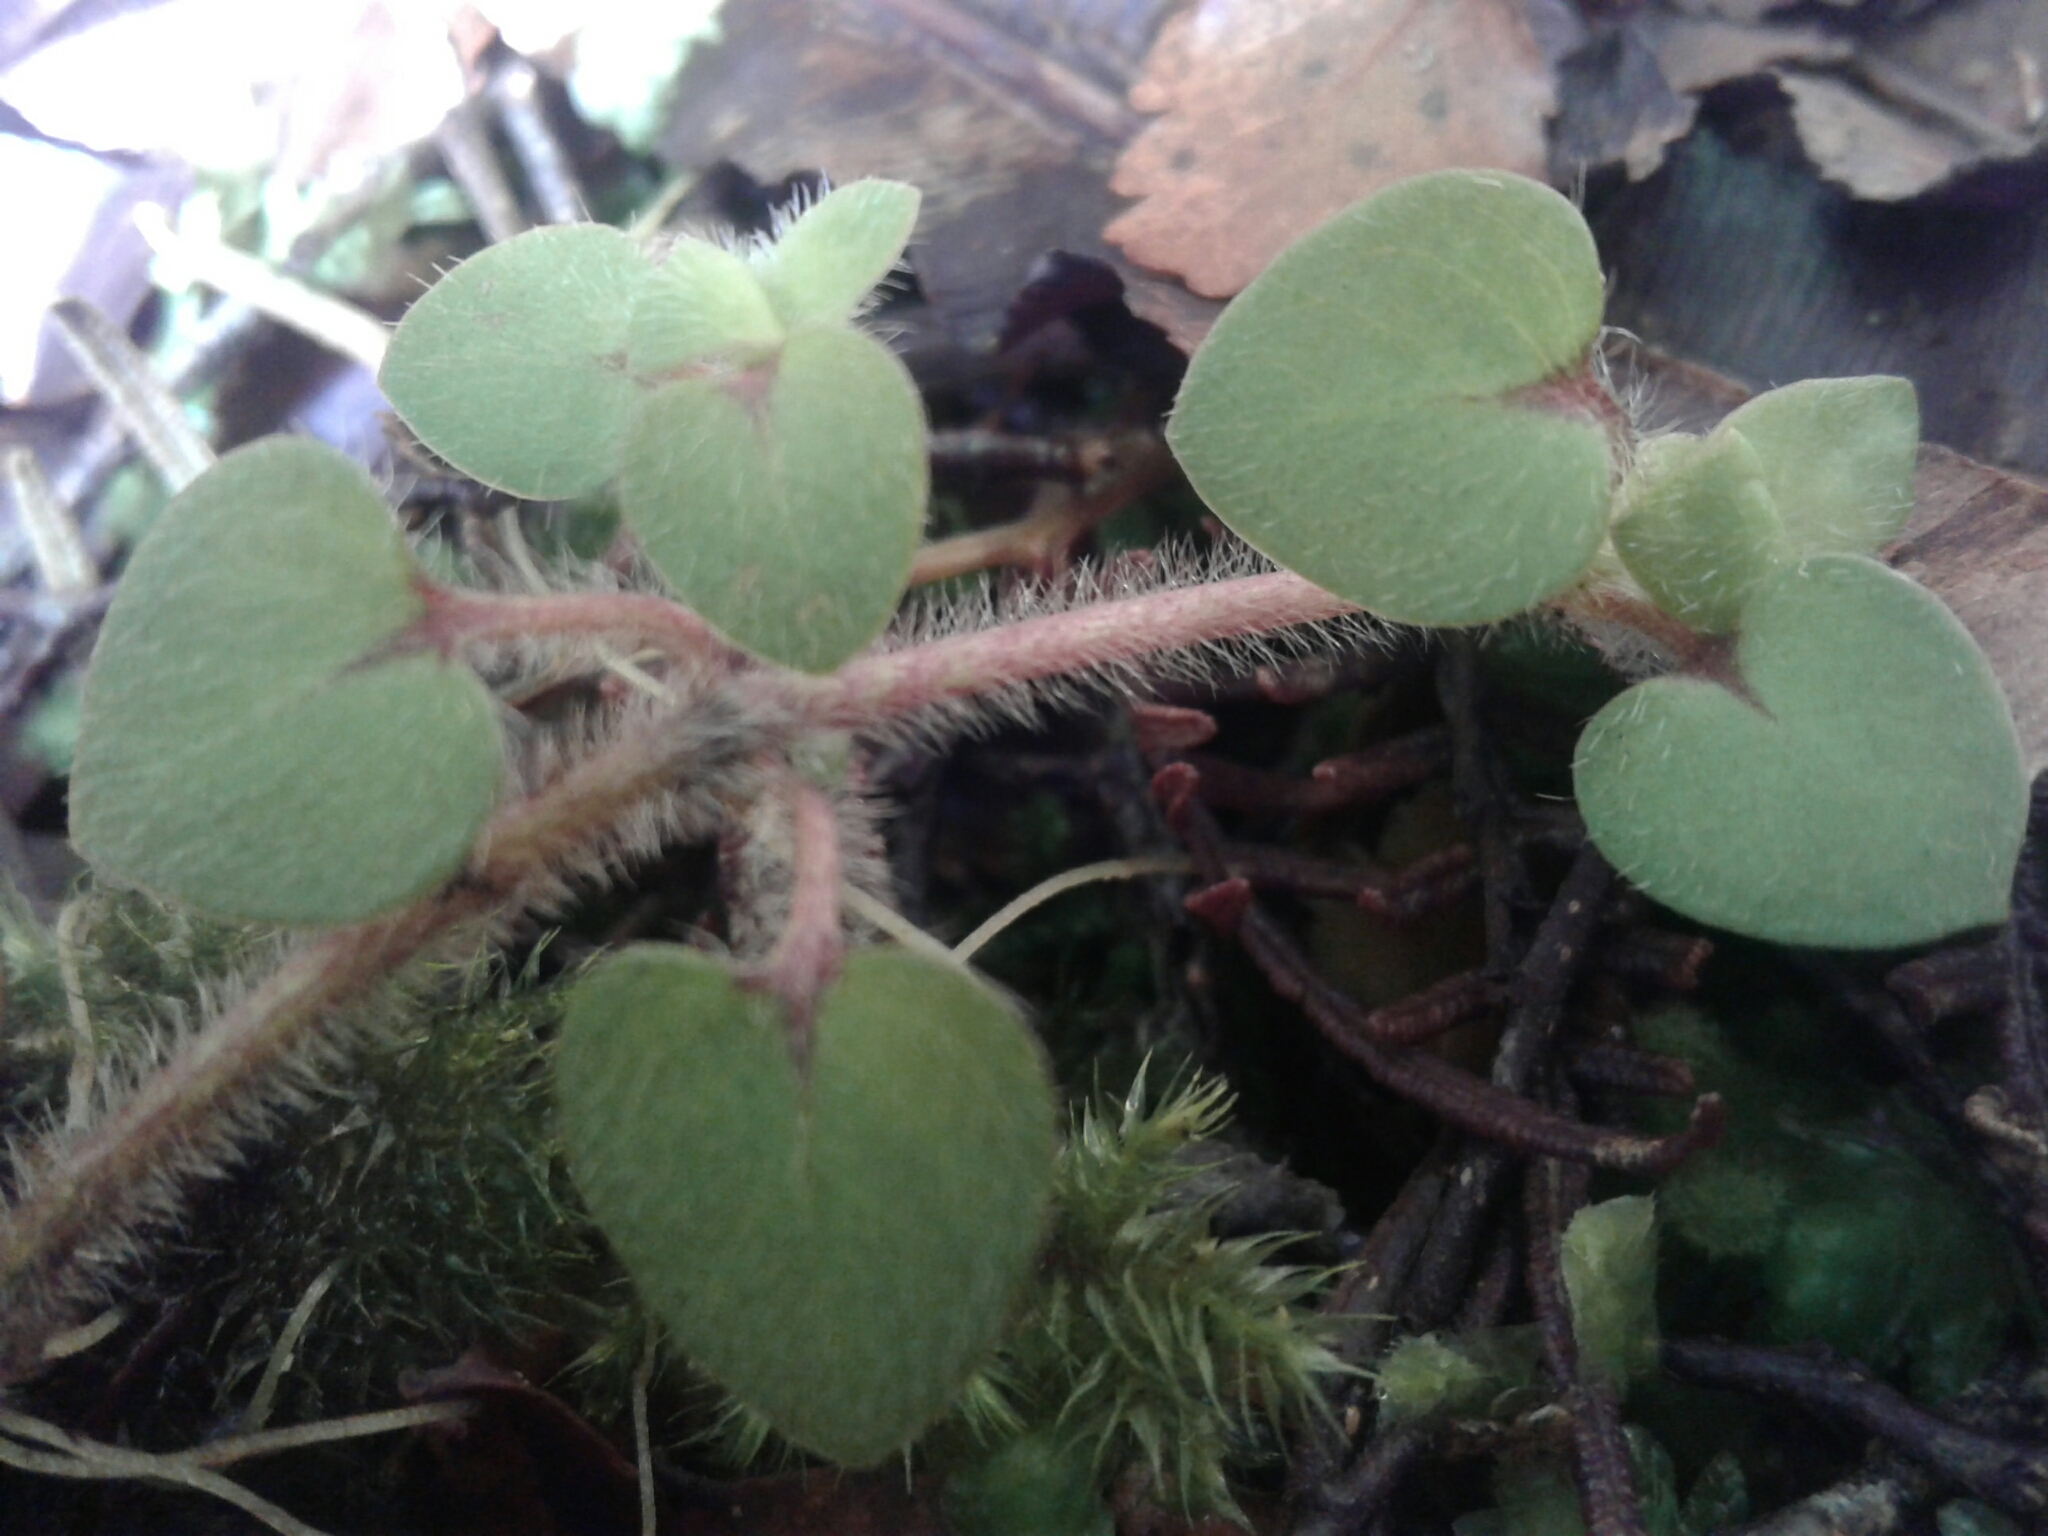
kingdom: Plantae
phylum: Tracheophyta
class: Magnoliopsida
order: Gentianales
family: Rubiaceae
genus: Nertera
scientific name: Nertera villosa
